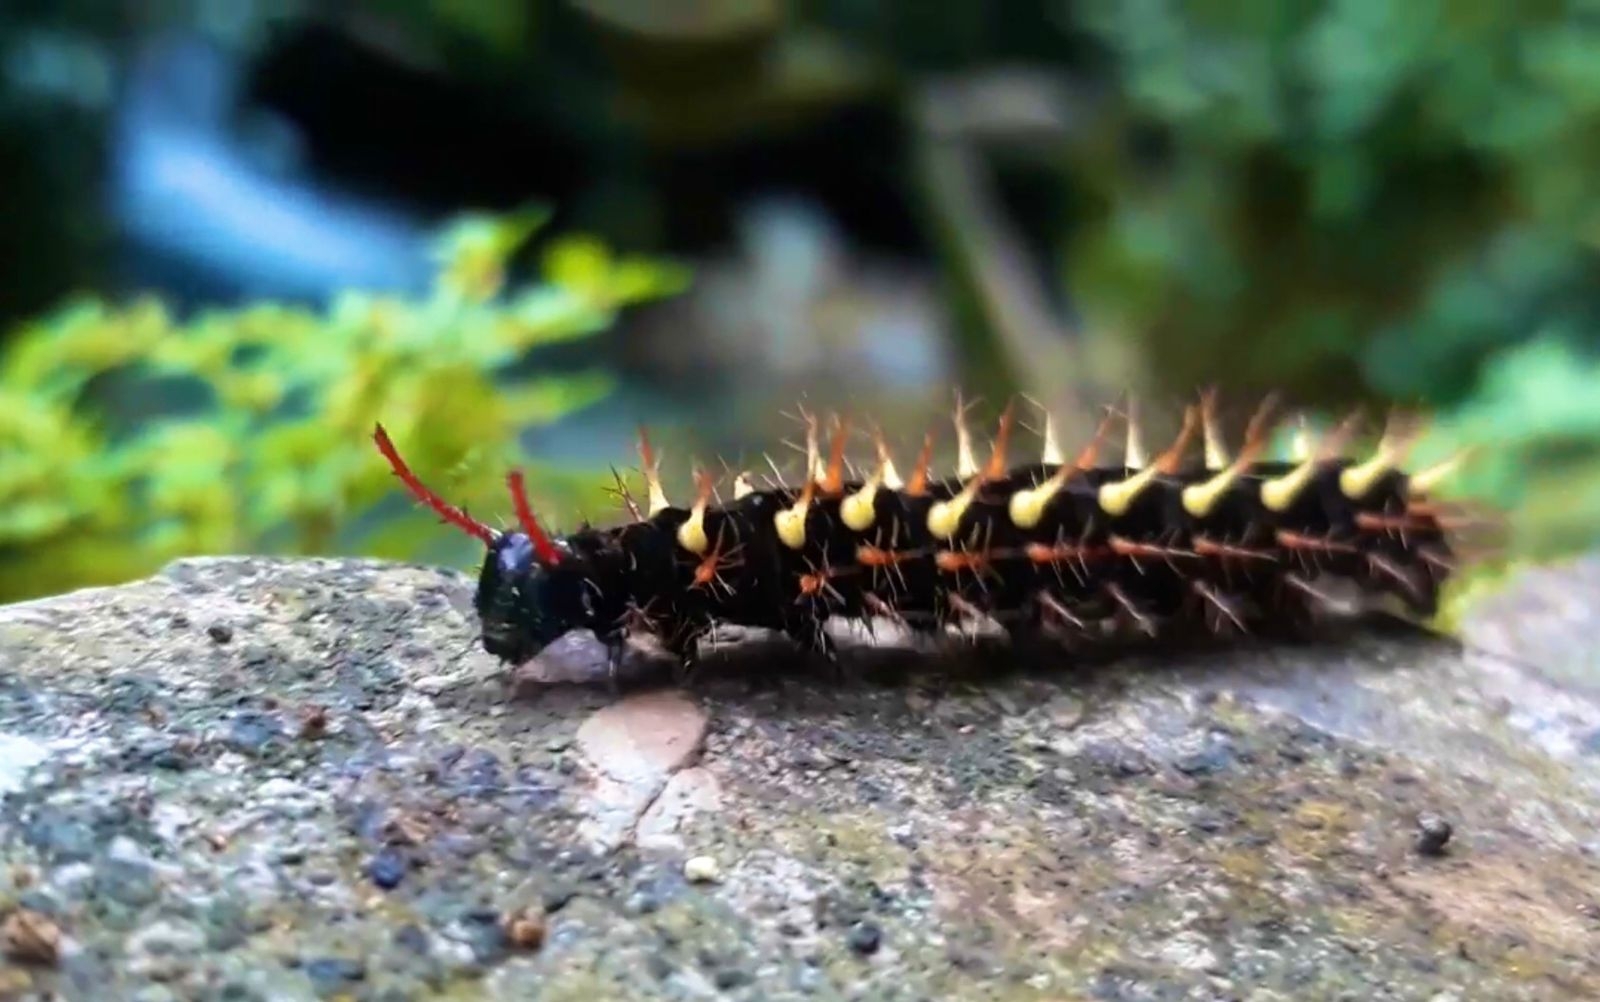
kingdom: Animalia
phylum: Arthropoda
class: Insecta
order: Lepidoptera
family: Nymphalidae
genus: Siproeta
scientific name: Siproeta stelenes
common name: Malachite
